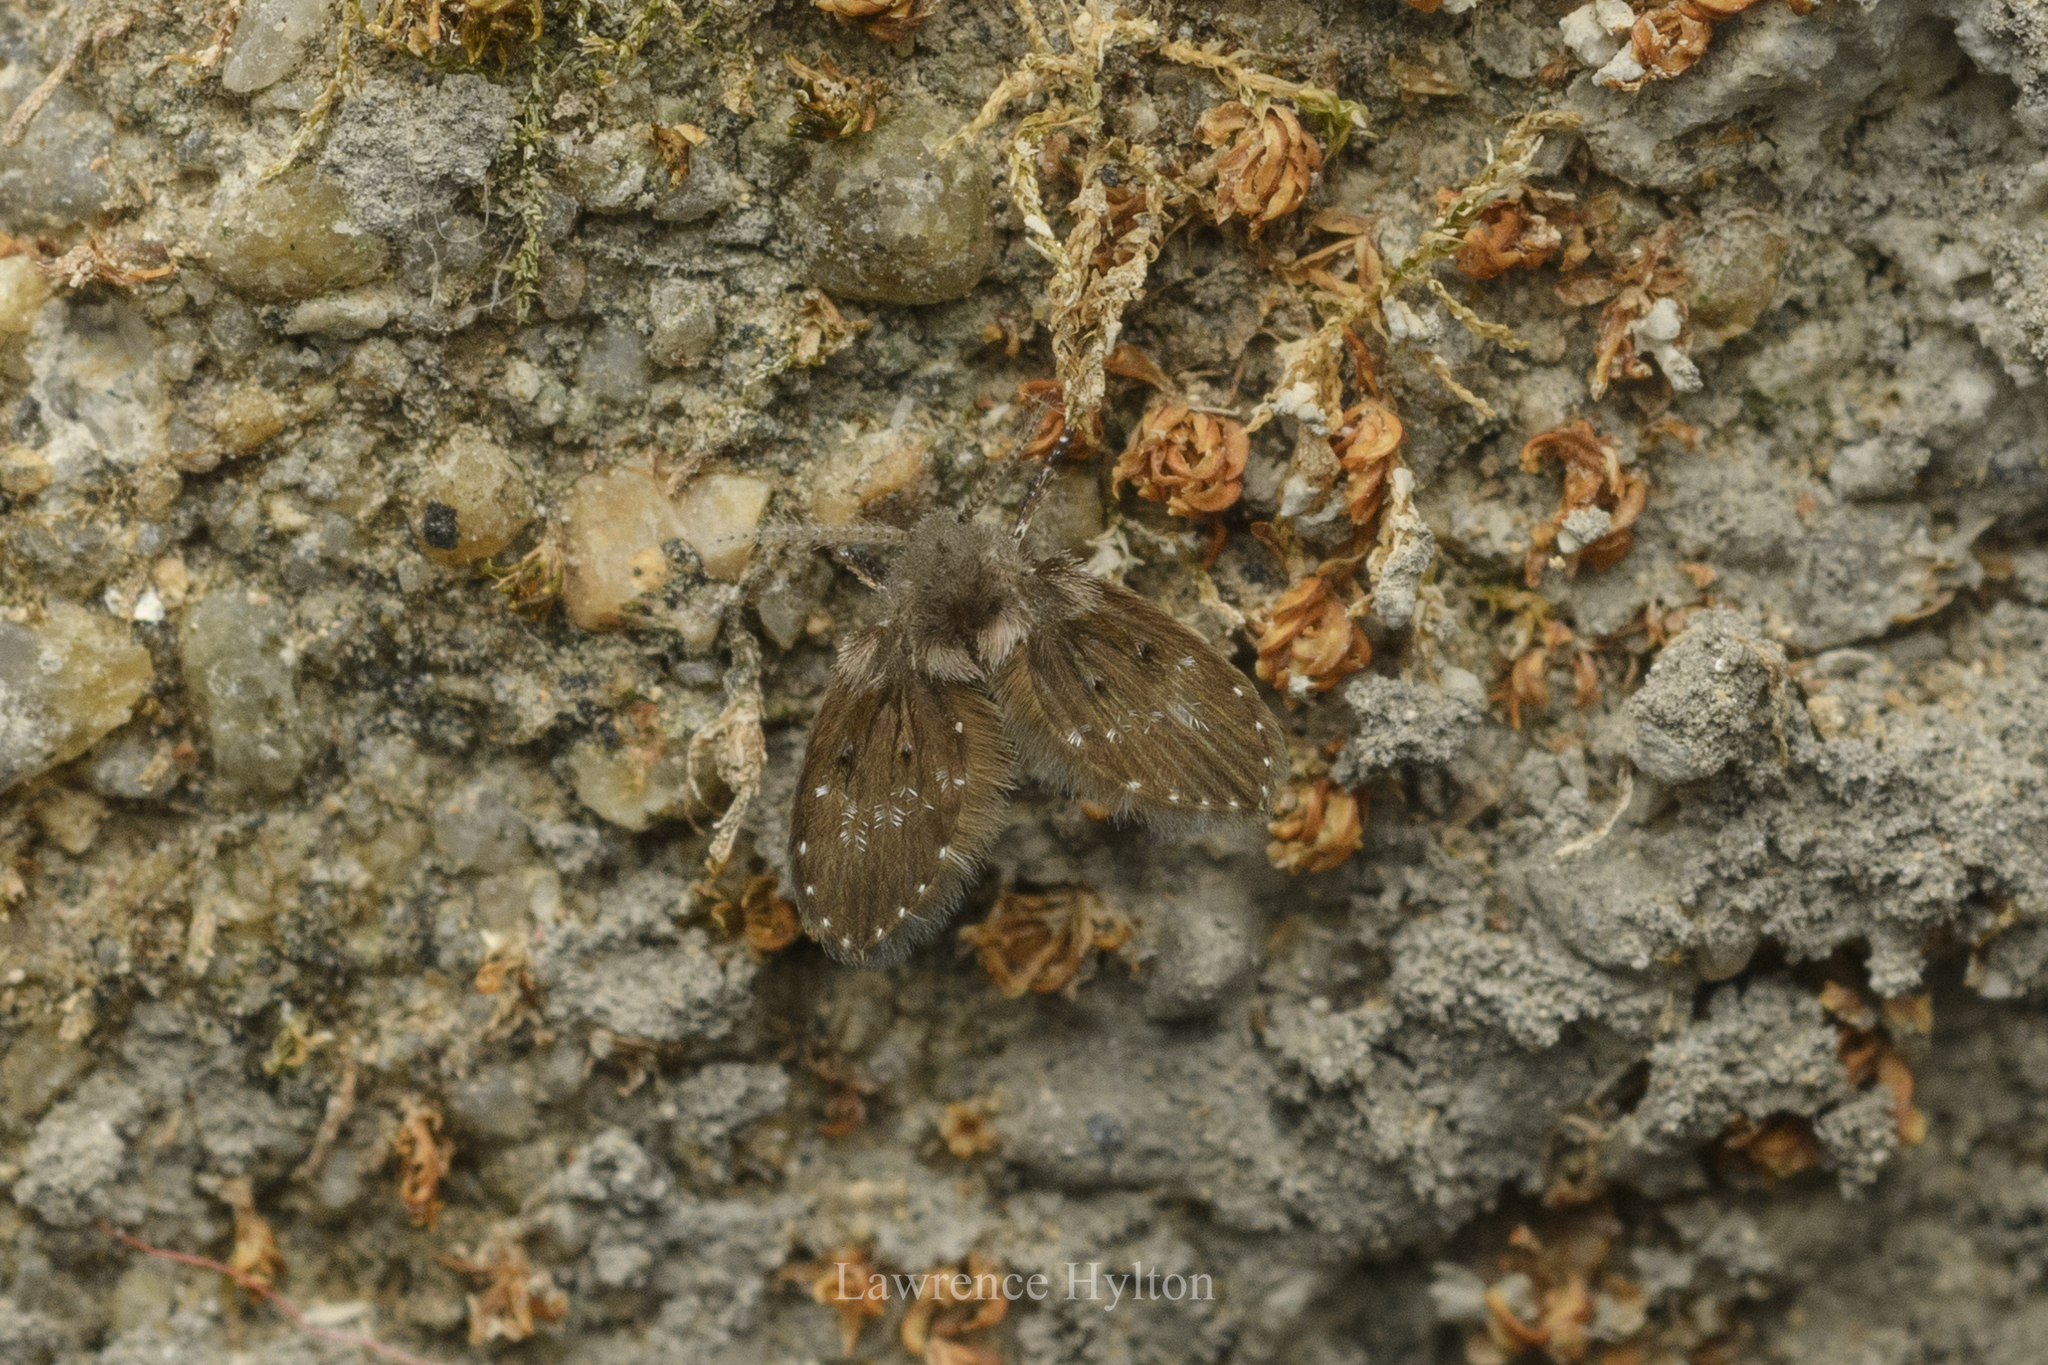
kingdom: Animalia
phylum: Arthropoda
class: Insecta
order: Diptera
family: Psychodidae
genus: Clogmia
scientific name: Clogmia albipunctatus
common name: White-spotted moth fly
